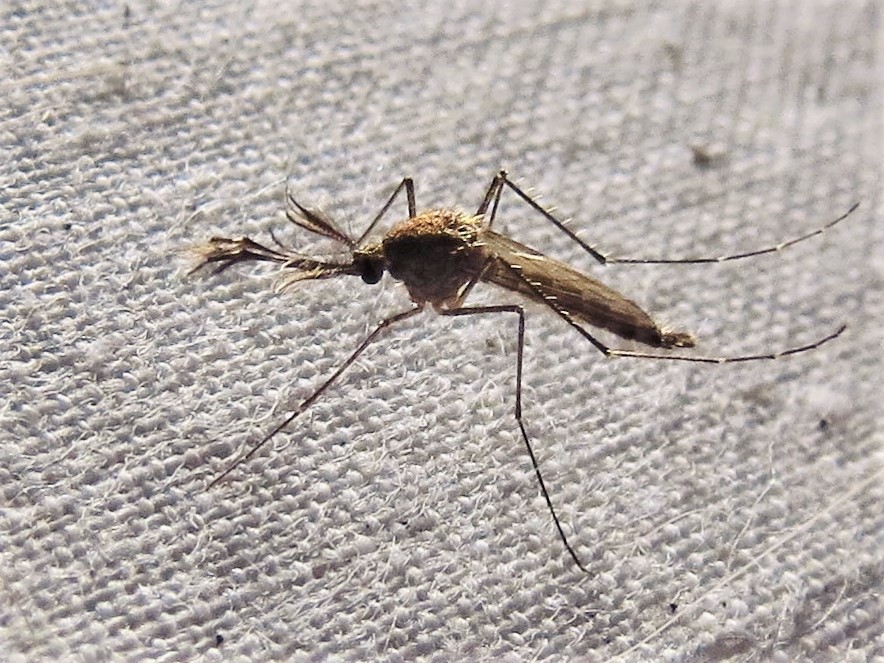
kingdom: Animalia
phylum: Arthropoda
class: Insecta
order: Diptera
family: Culicidae
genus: Aedes
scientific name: Aedes vexans
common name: Inland floodwater mosquito
